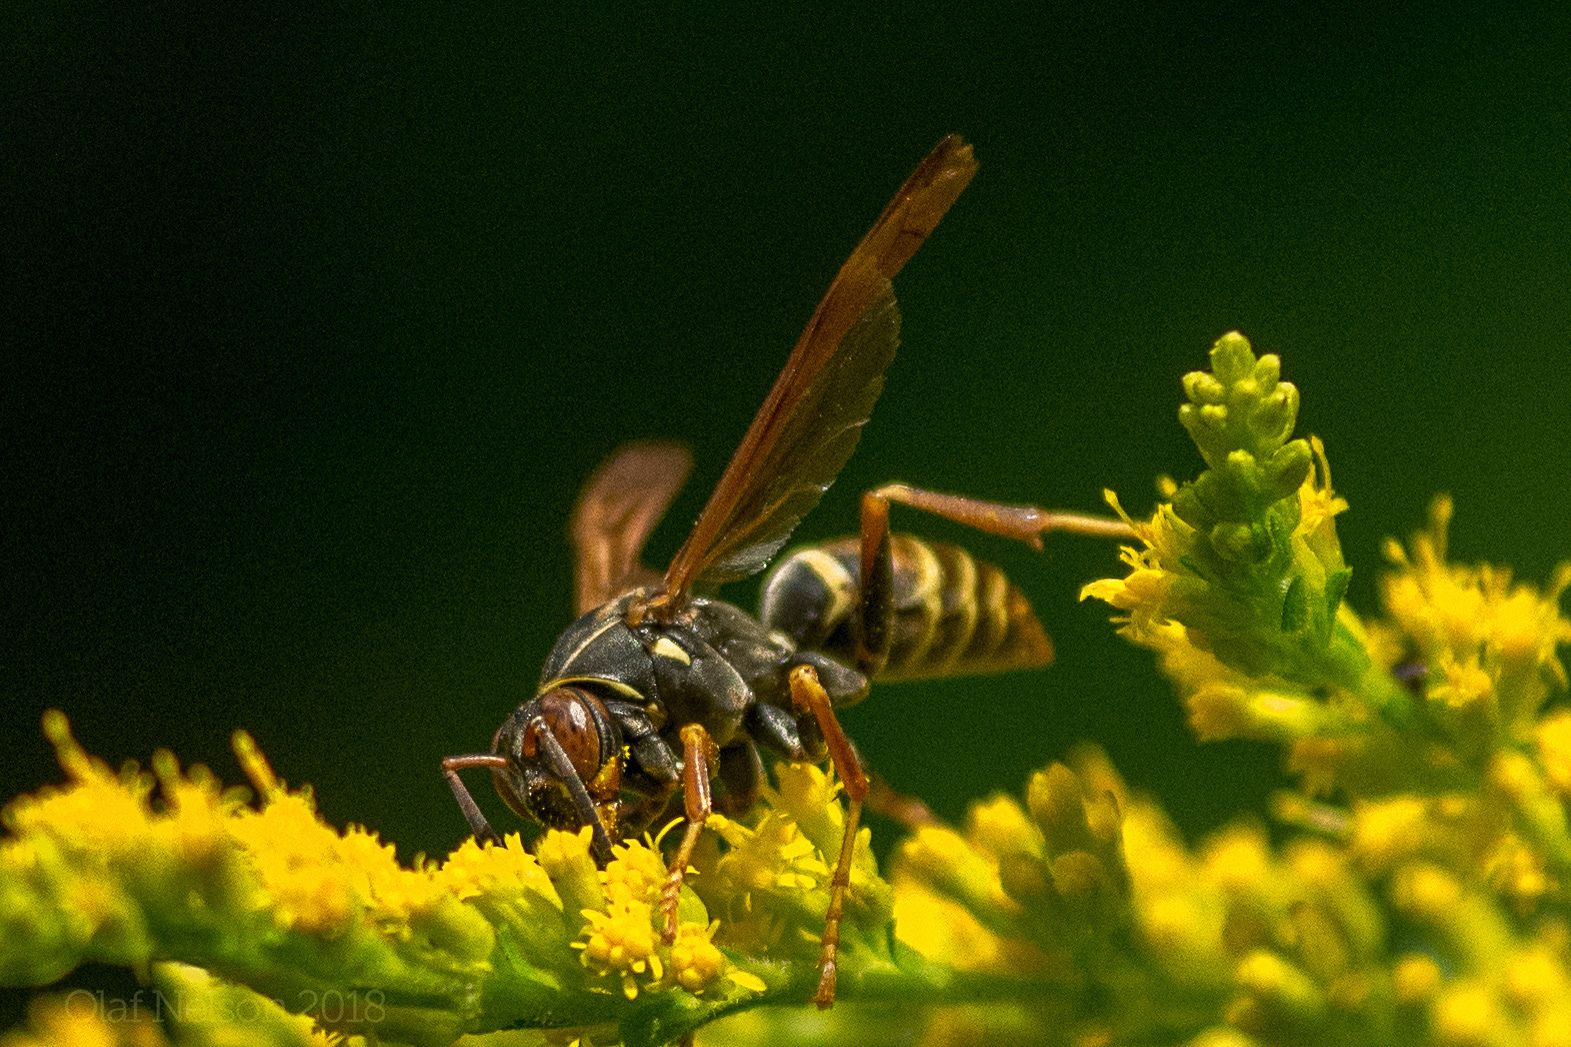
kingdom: Animalia
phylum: Arthropoda
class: Insecta
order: Hymenoptera
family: Eumenidae
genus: Polistes
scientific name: Polistes fuscatus
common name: Dark paper wasp
